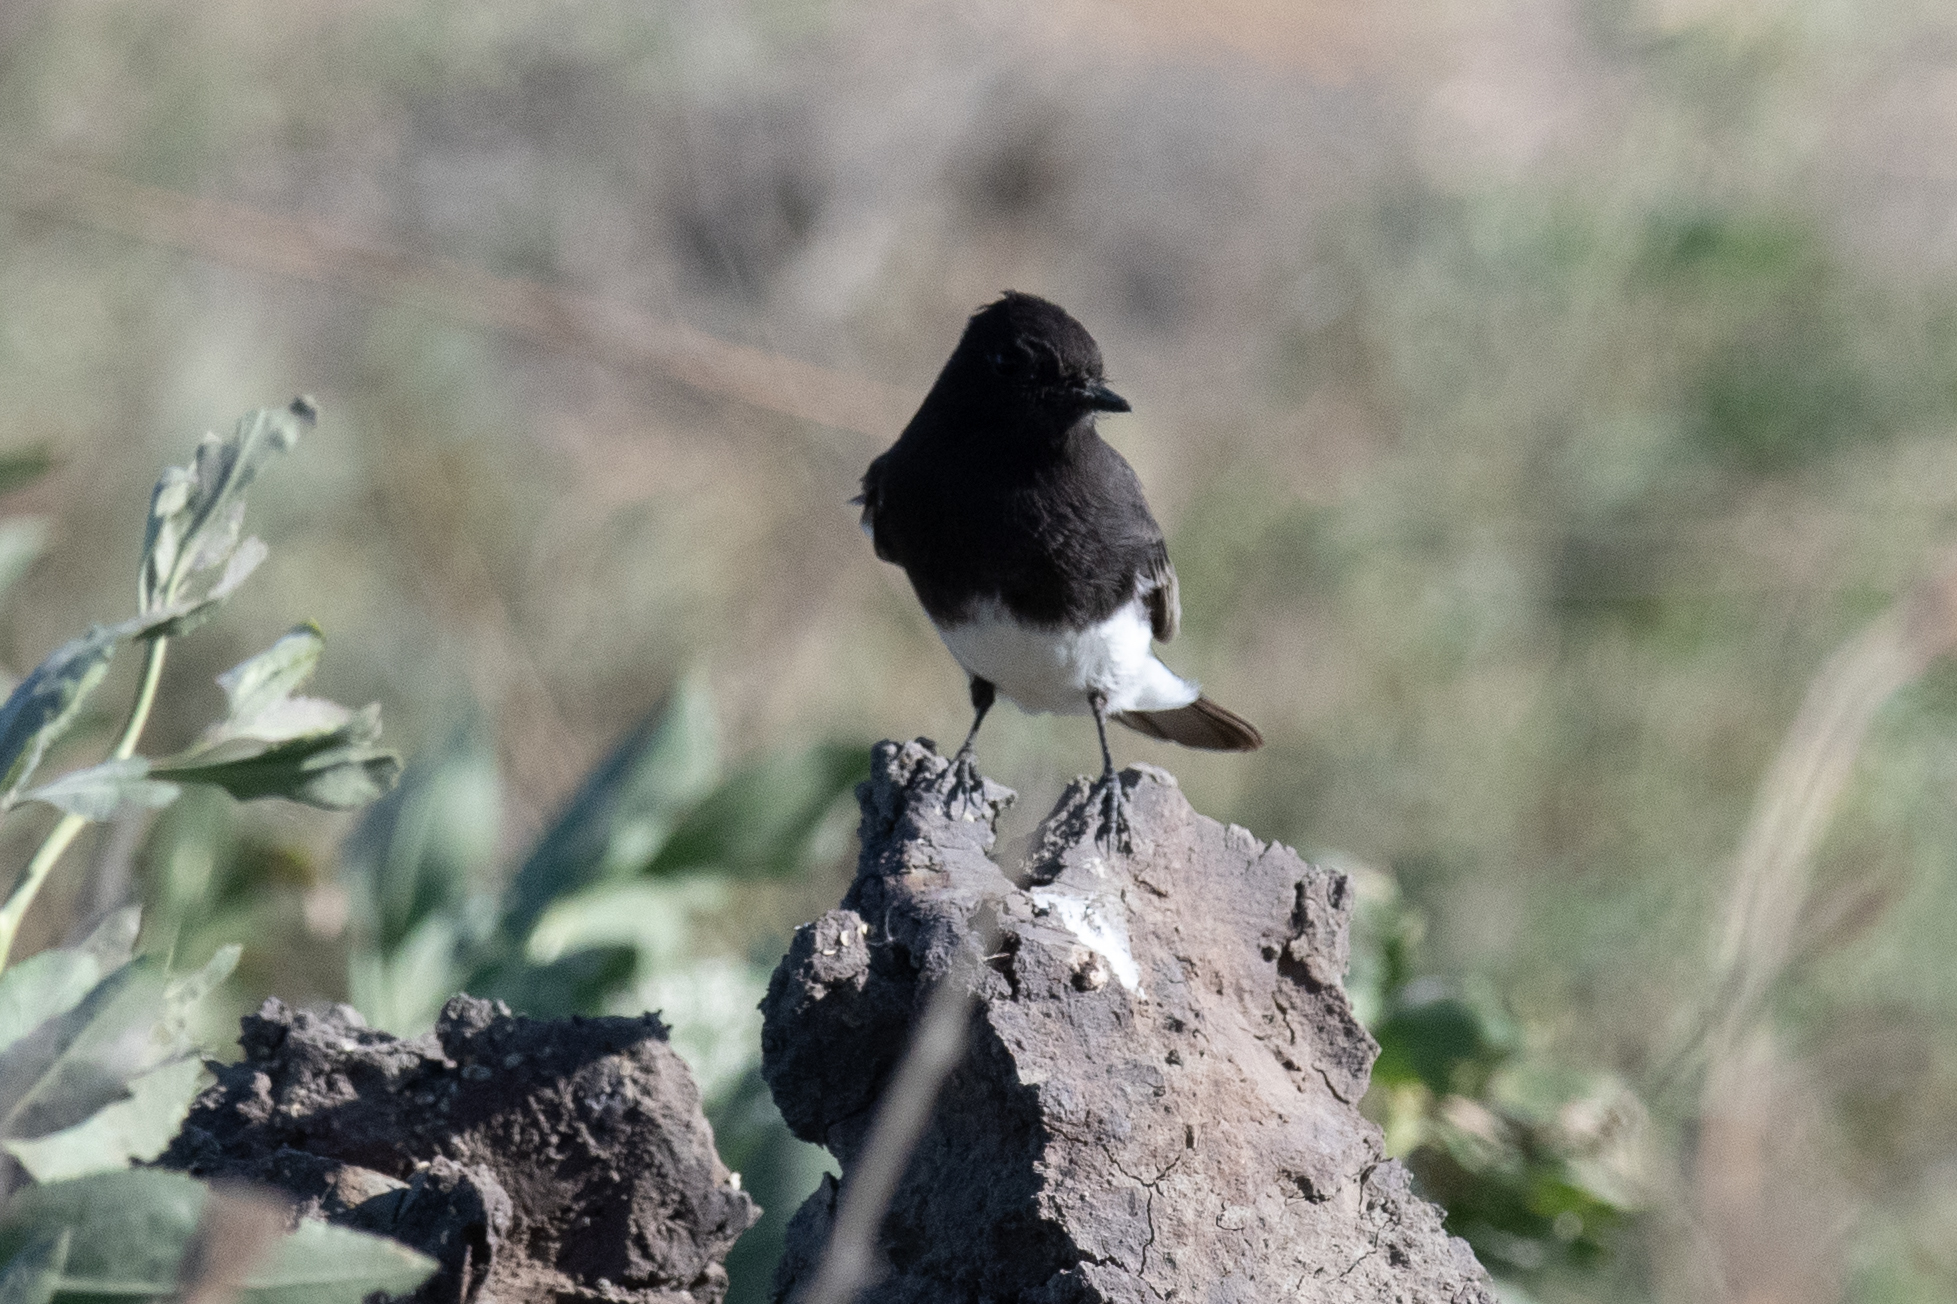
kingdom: Animalia
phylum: Chordata
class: Aves
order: Passeriformes
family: Tyrannidae
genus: Sayornis
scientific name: Sayornis nigricans
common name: Black phoebe
